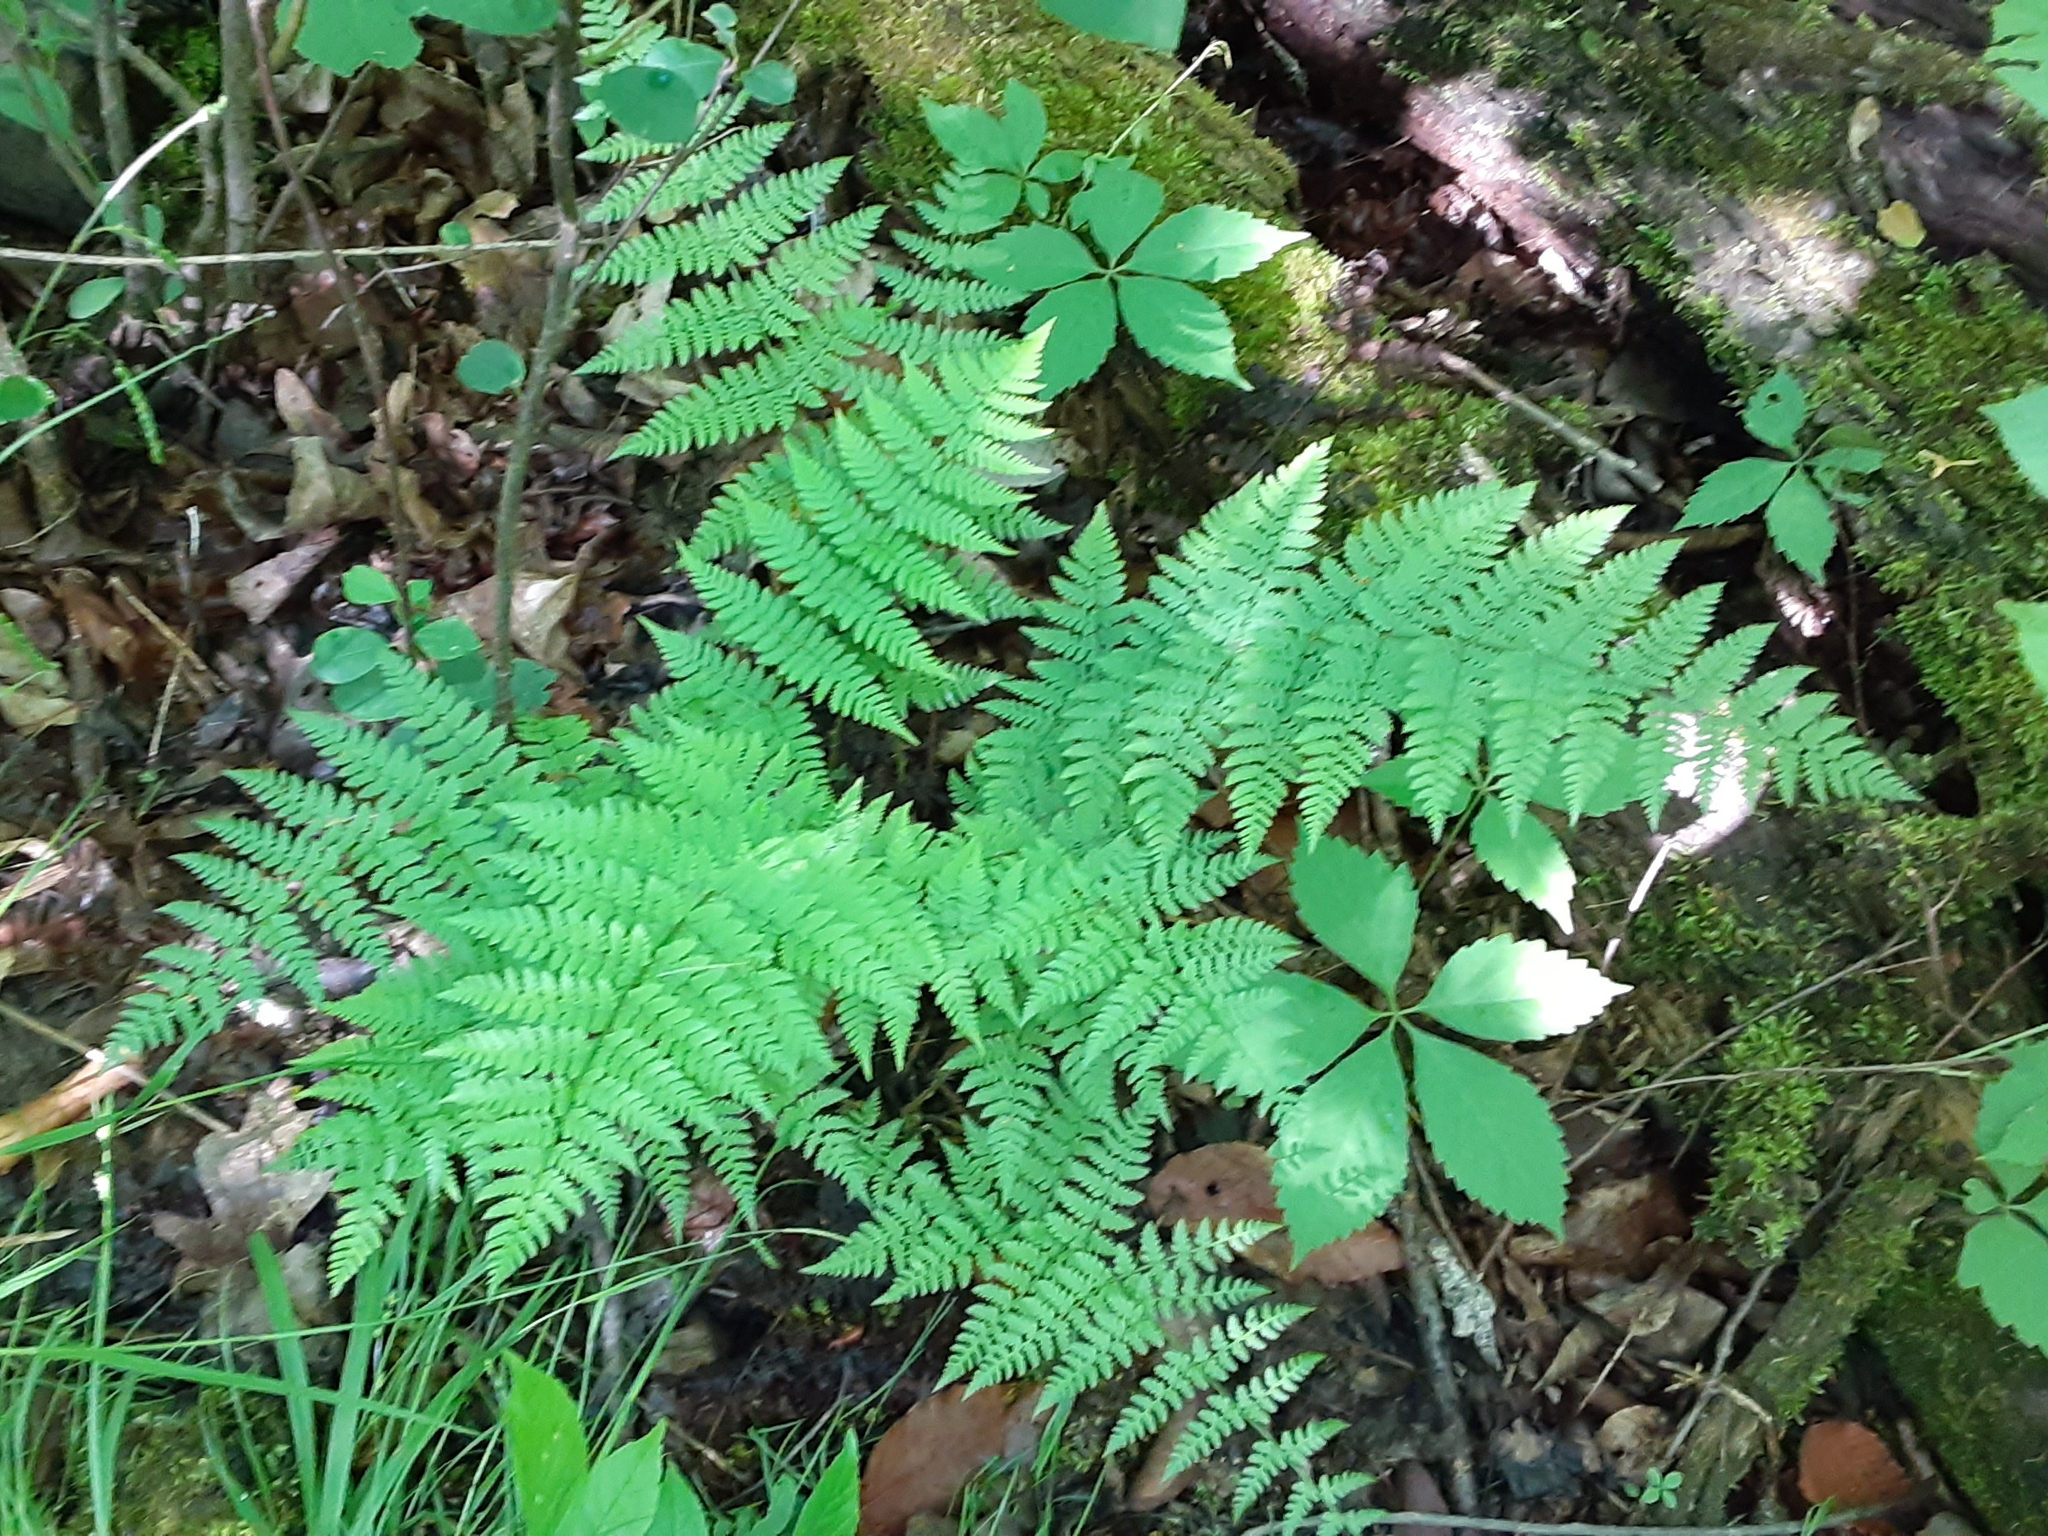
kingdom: Plantae
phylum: Tracheophyta
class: Polypodiopsida
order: Polypodiales
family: Dryopteridaceae
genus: Dryopteris
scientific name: Dryopteris intermedia
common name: Evergreen wood fern
